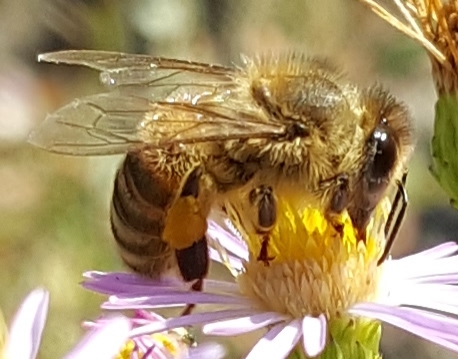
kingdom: Animalia
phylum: Arthropoda
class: Insecta
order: Hymenoptera
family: Apidae
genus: Apis
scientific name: Apis mellifera
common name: Honey bee
